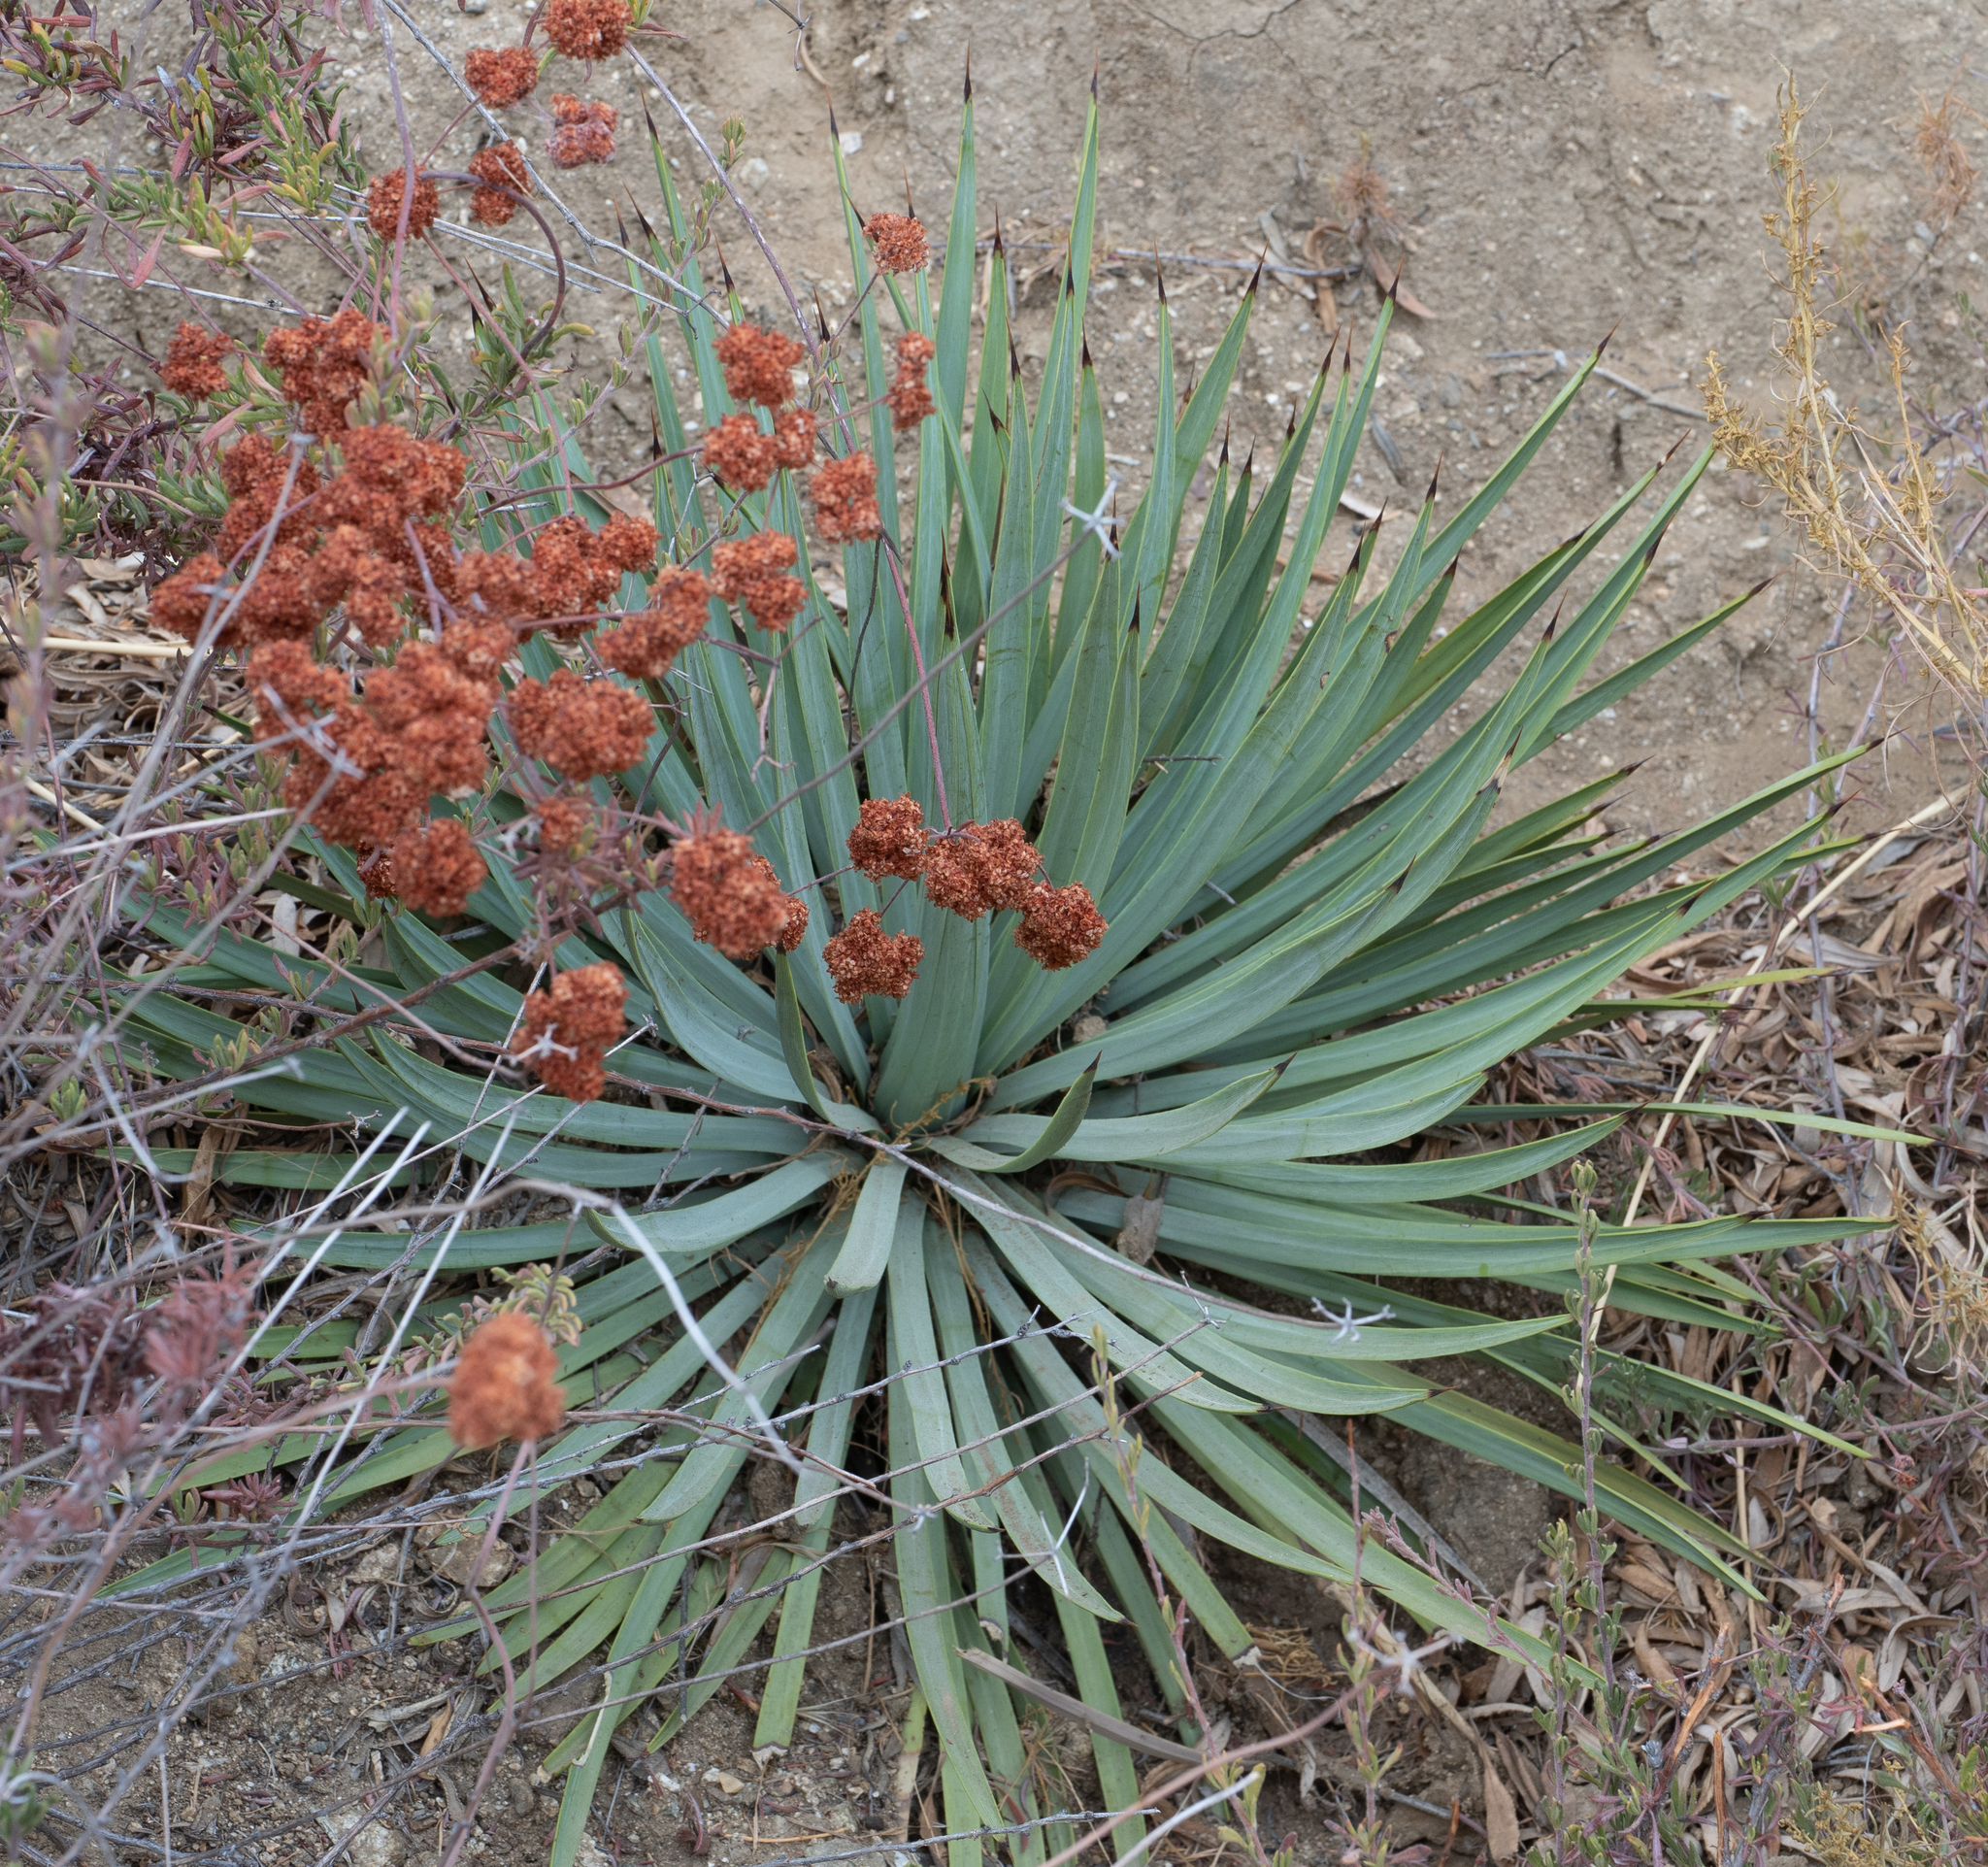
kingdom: Plantae
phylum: Tracheophyta
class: Liliopsida
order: Asparagales
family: Asparagaceae
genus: Hesperoyucca
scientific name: Hesperoyucca whipplei
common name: Our lord's-candle
